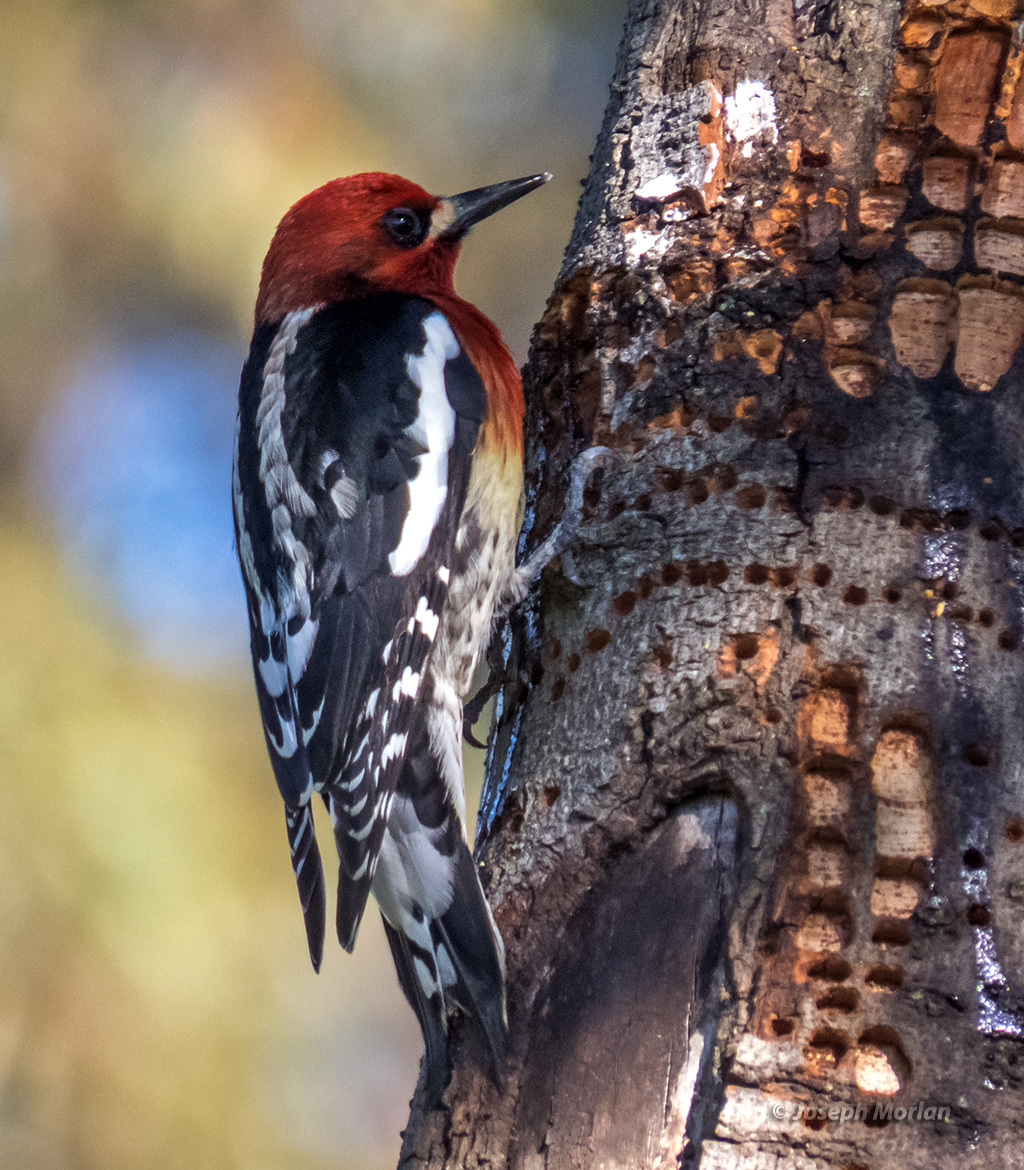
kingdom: Animalia
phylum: Chordata
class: Aves
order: Piciformes
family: Picidae
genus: Sphyrapicus
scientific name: Sphyrapicus ruber
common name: Red-breasted sapsucker
